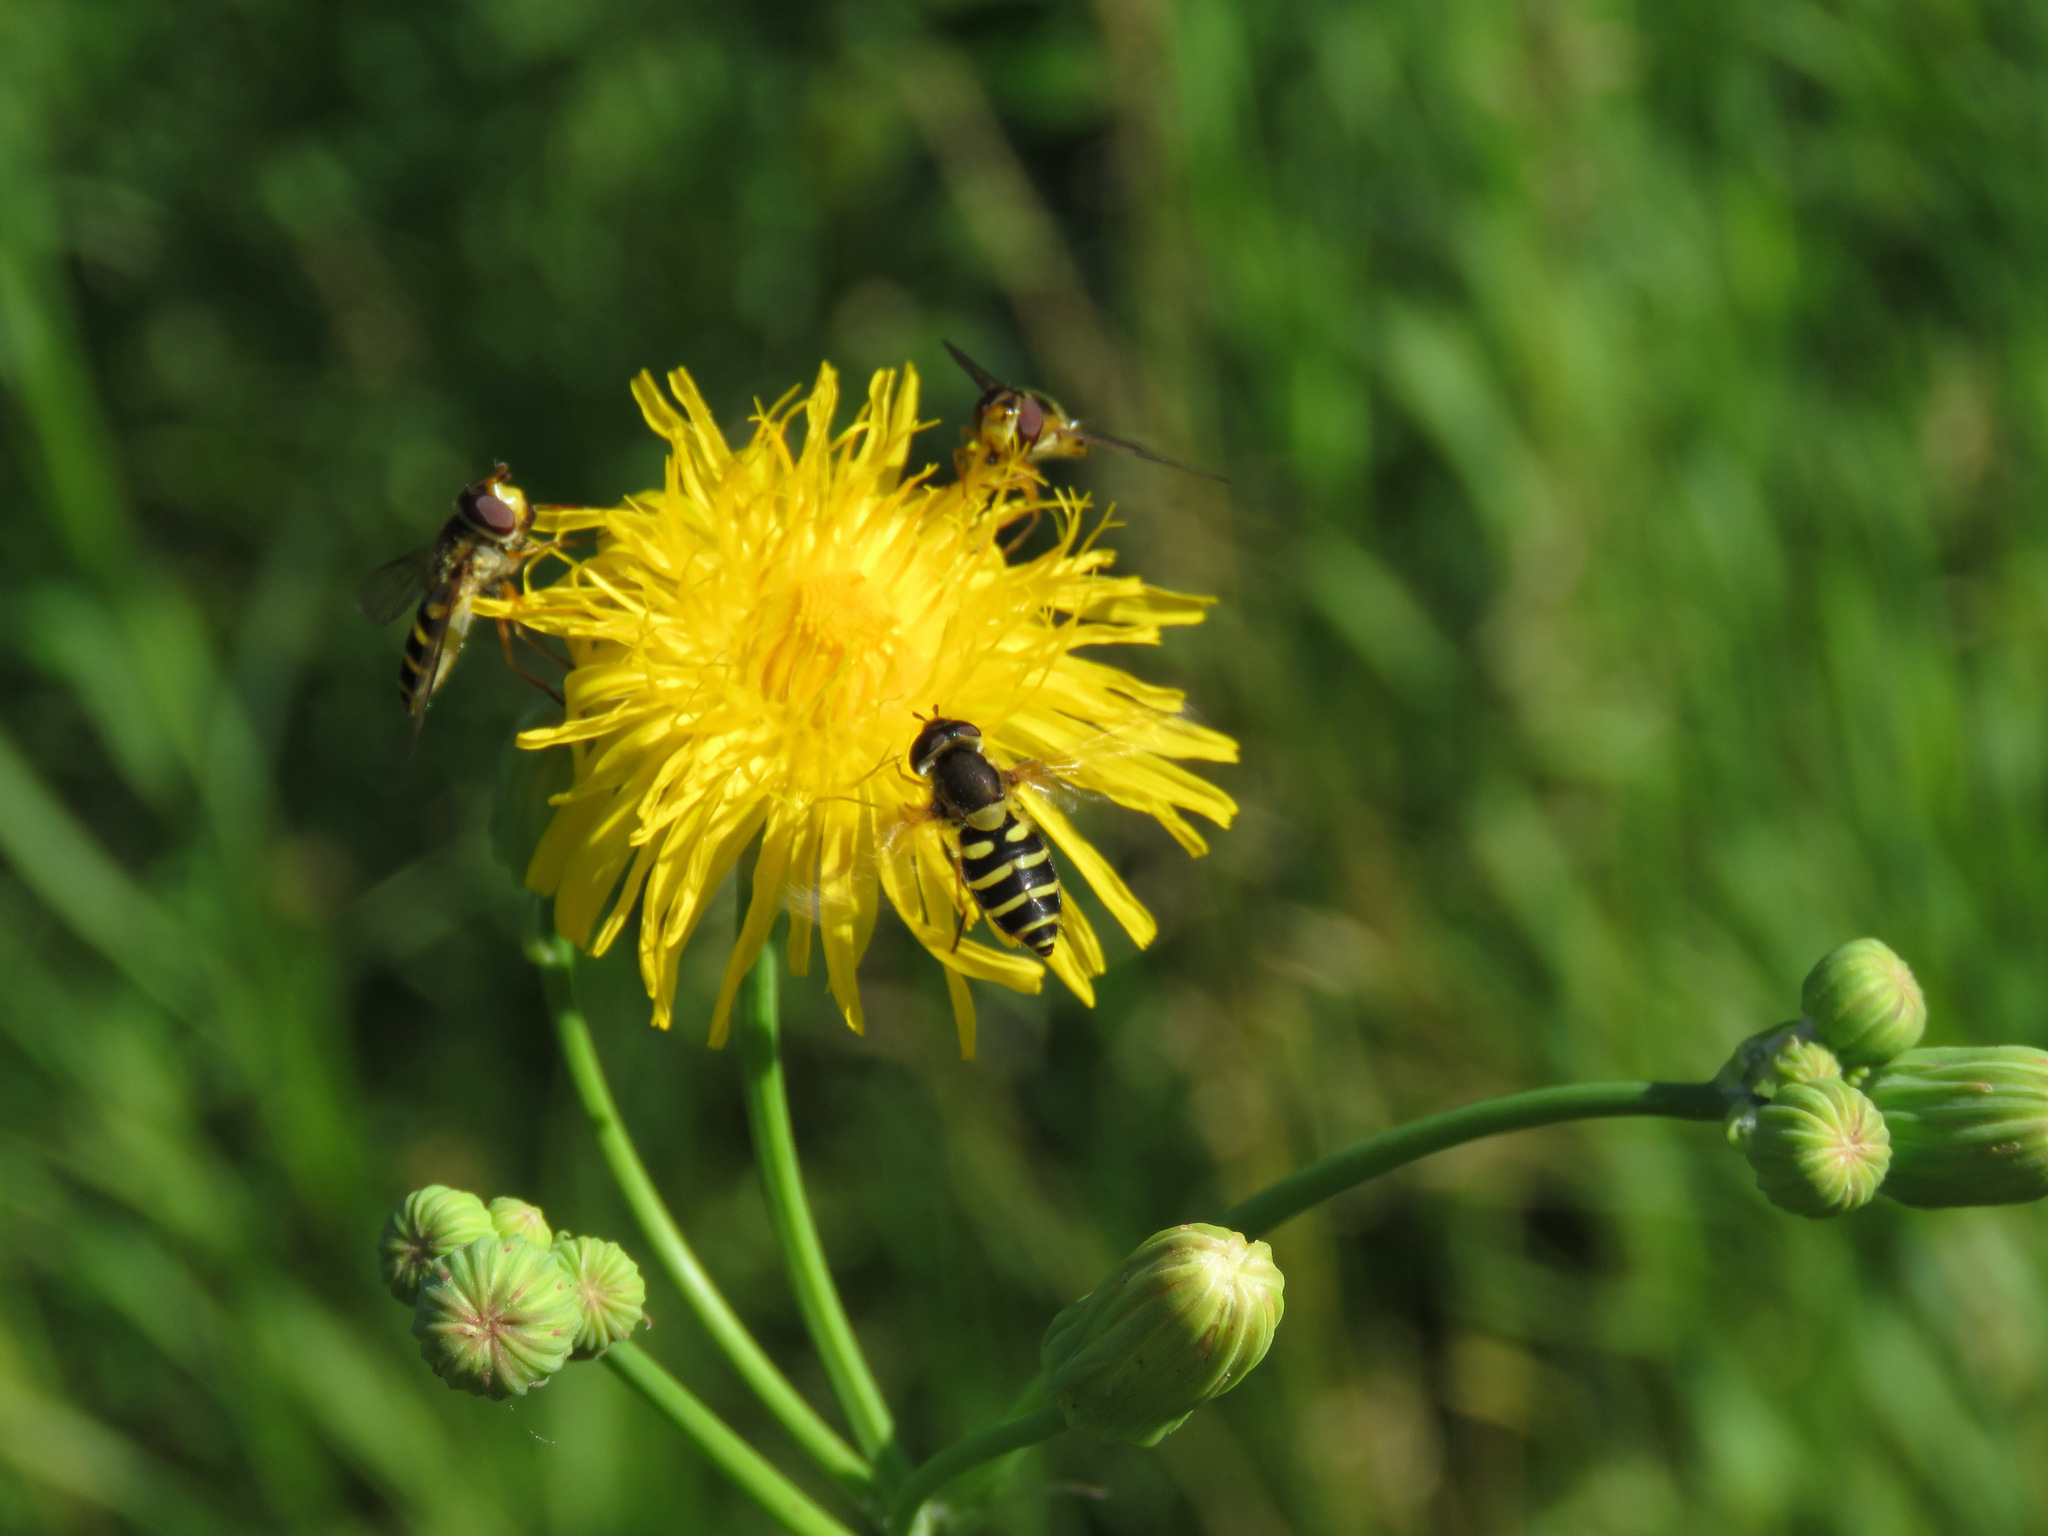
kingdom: Animalia
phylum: Arthropoda
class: Insecta
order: Diptera
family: Syrphidae
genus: Syrphus
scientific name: Syrphus
